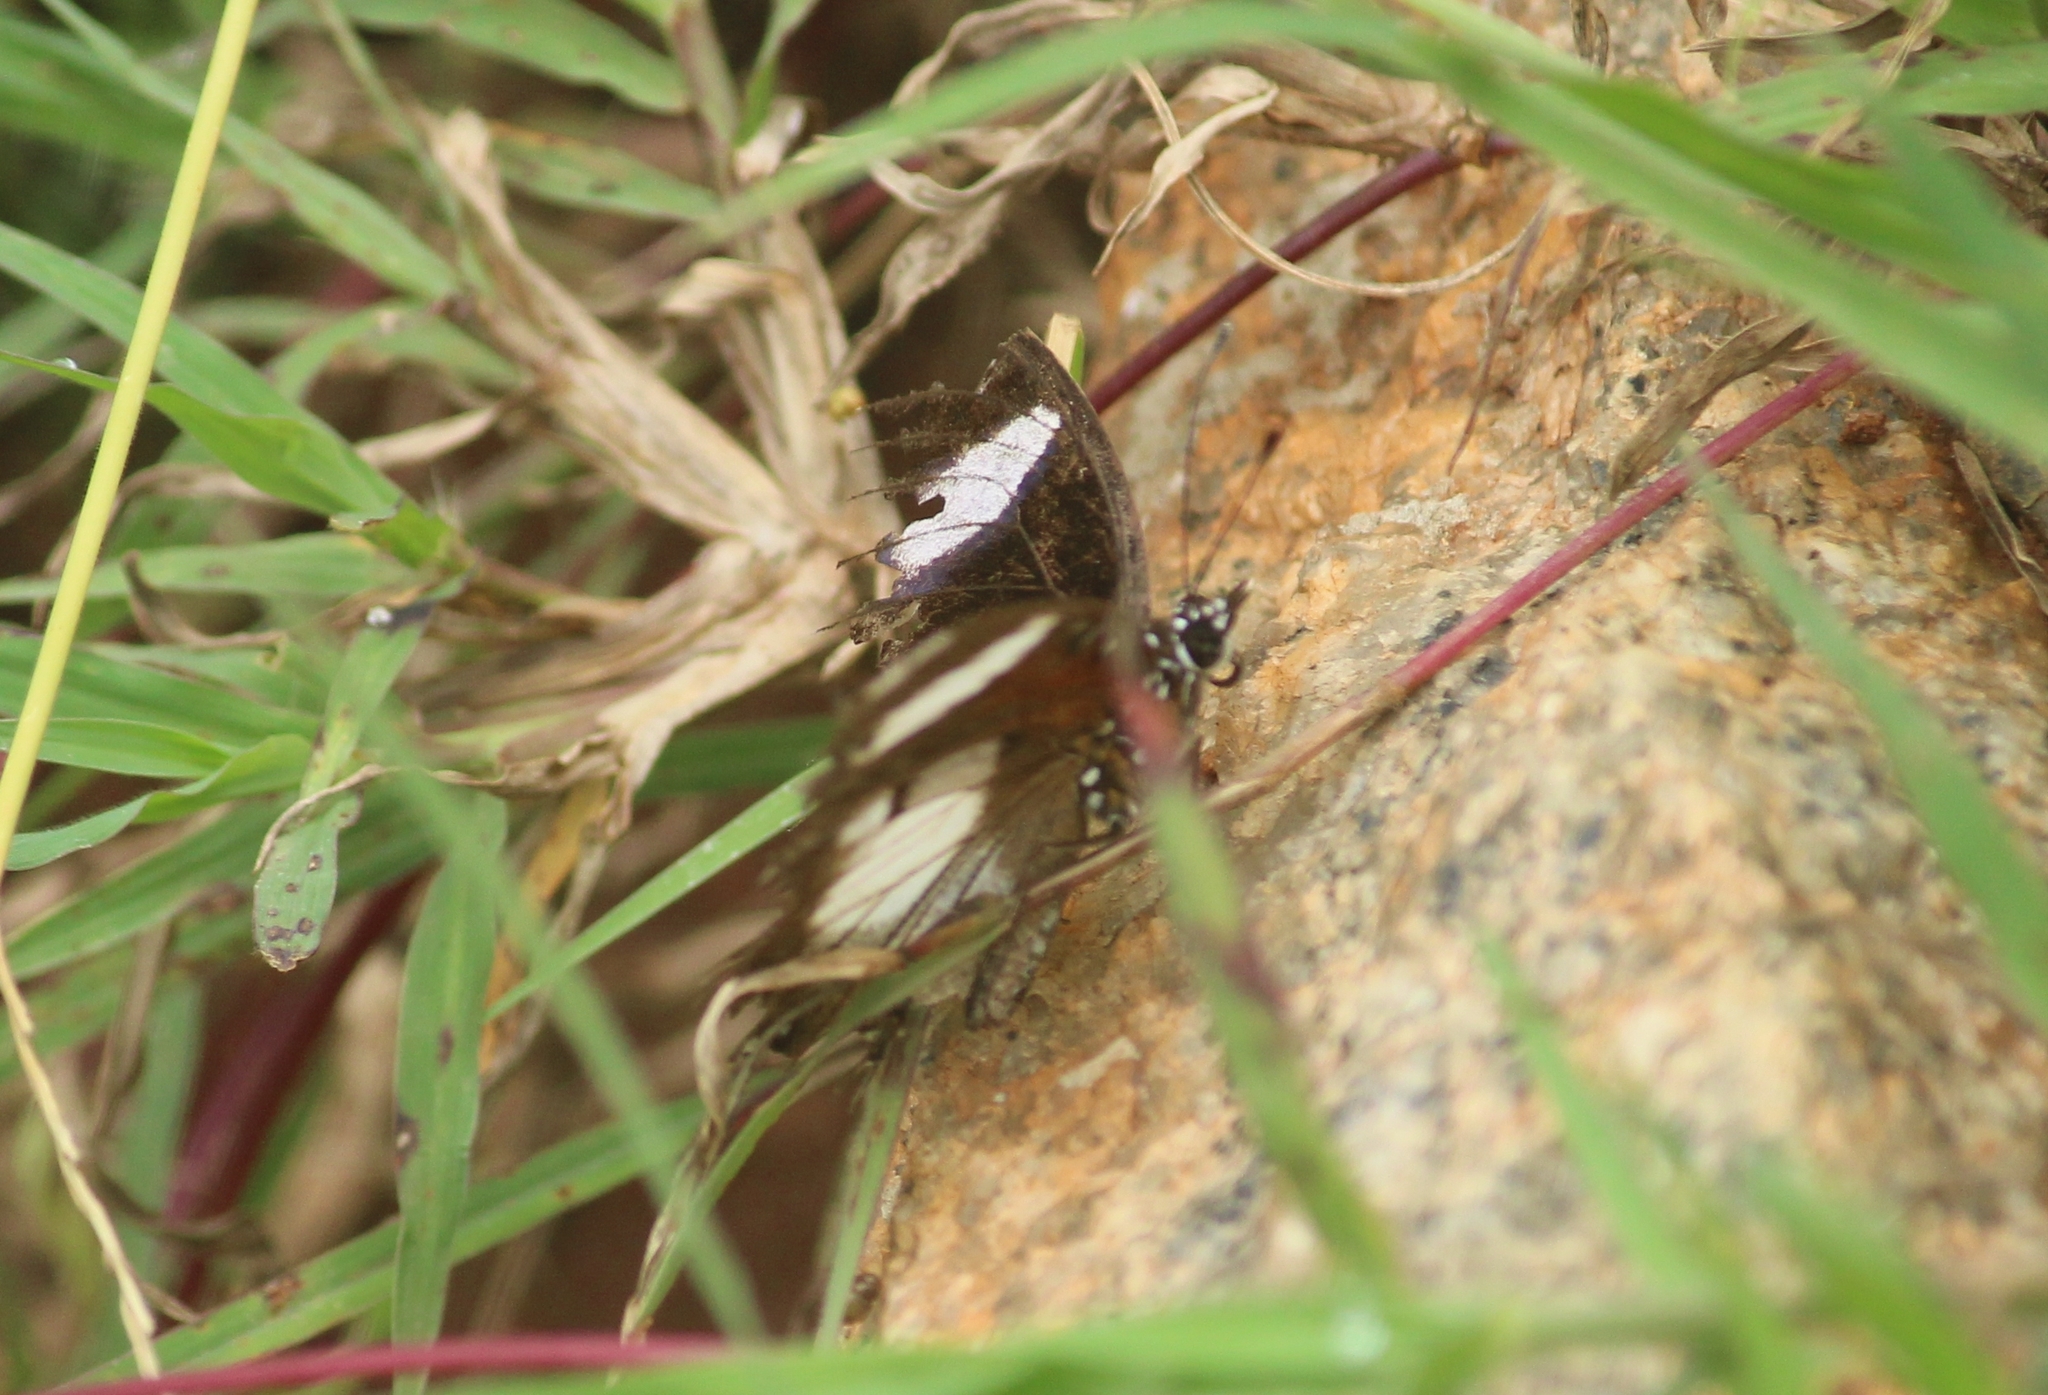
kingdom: Animalia
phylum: Arthropoda
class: Insecta
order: Lepidoptera
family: Nymphalidae
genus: Hypolimnas
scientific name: Hypolimnas misippus
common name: False plain tiger
